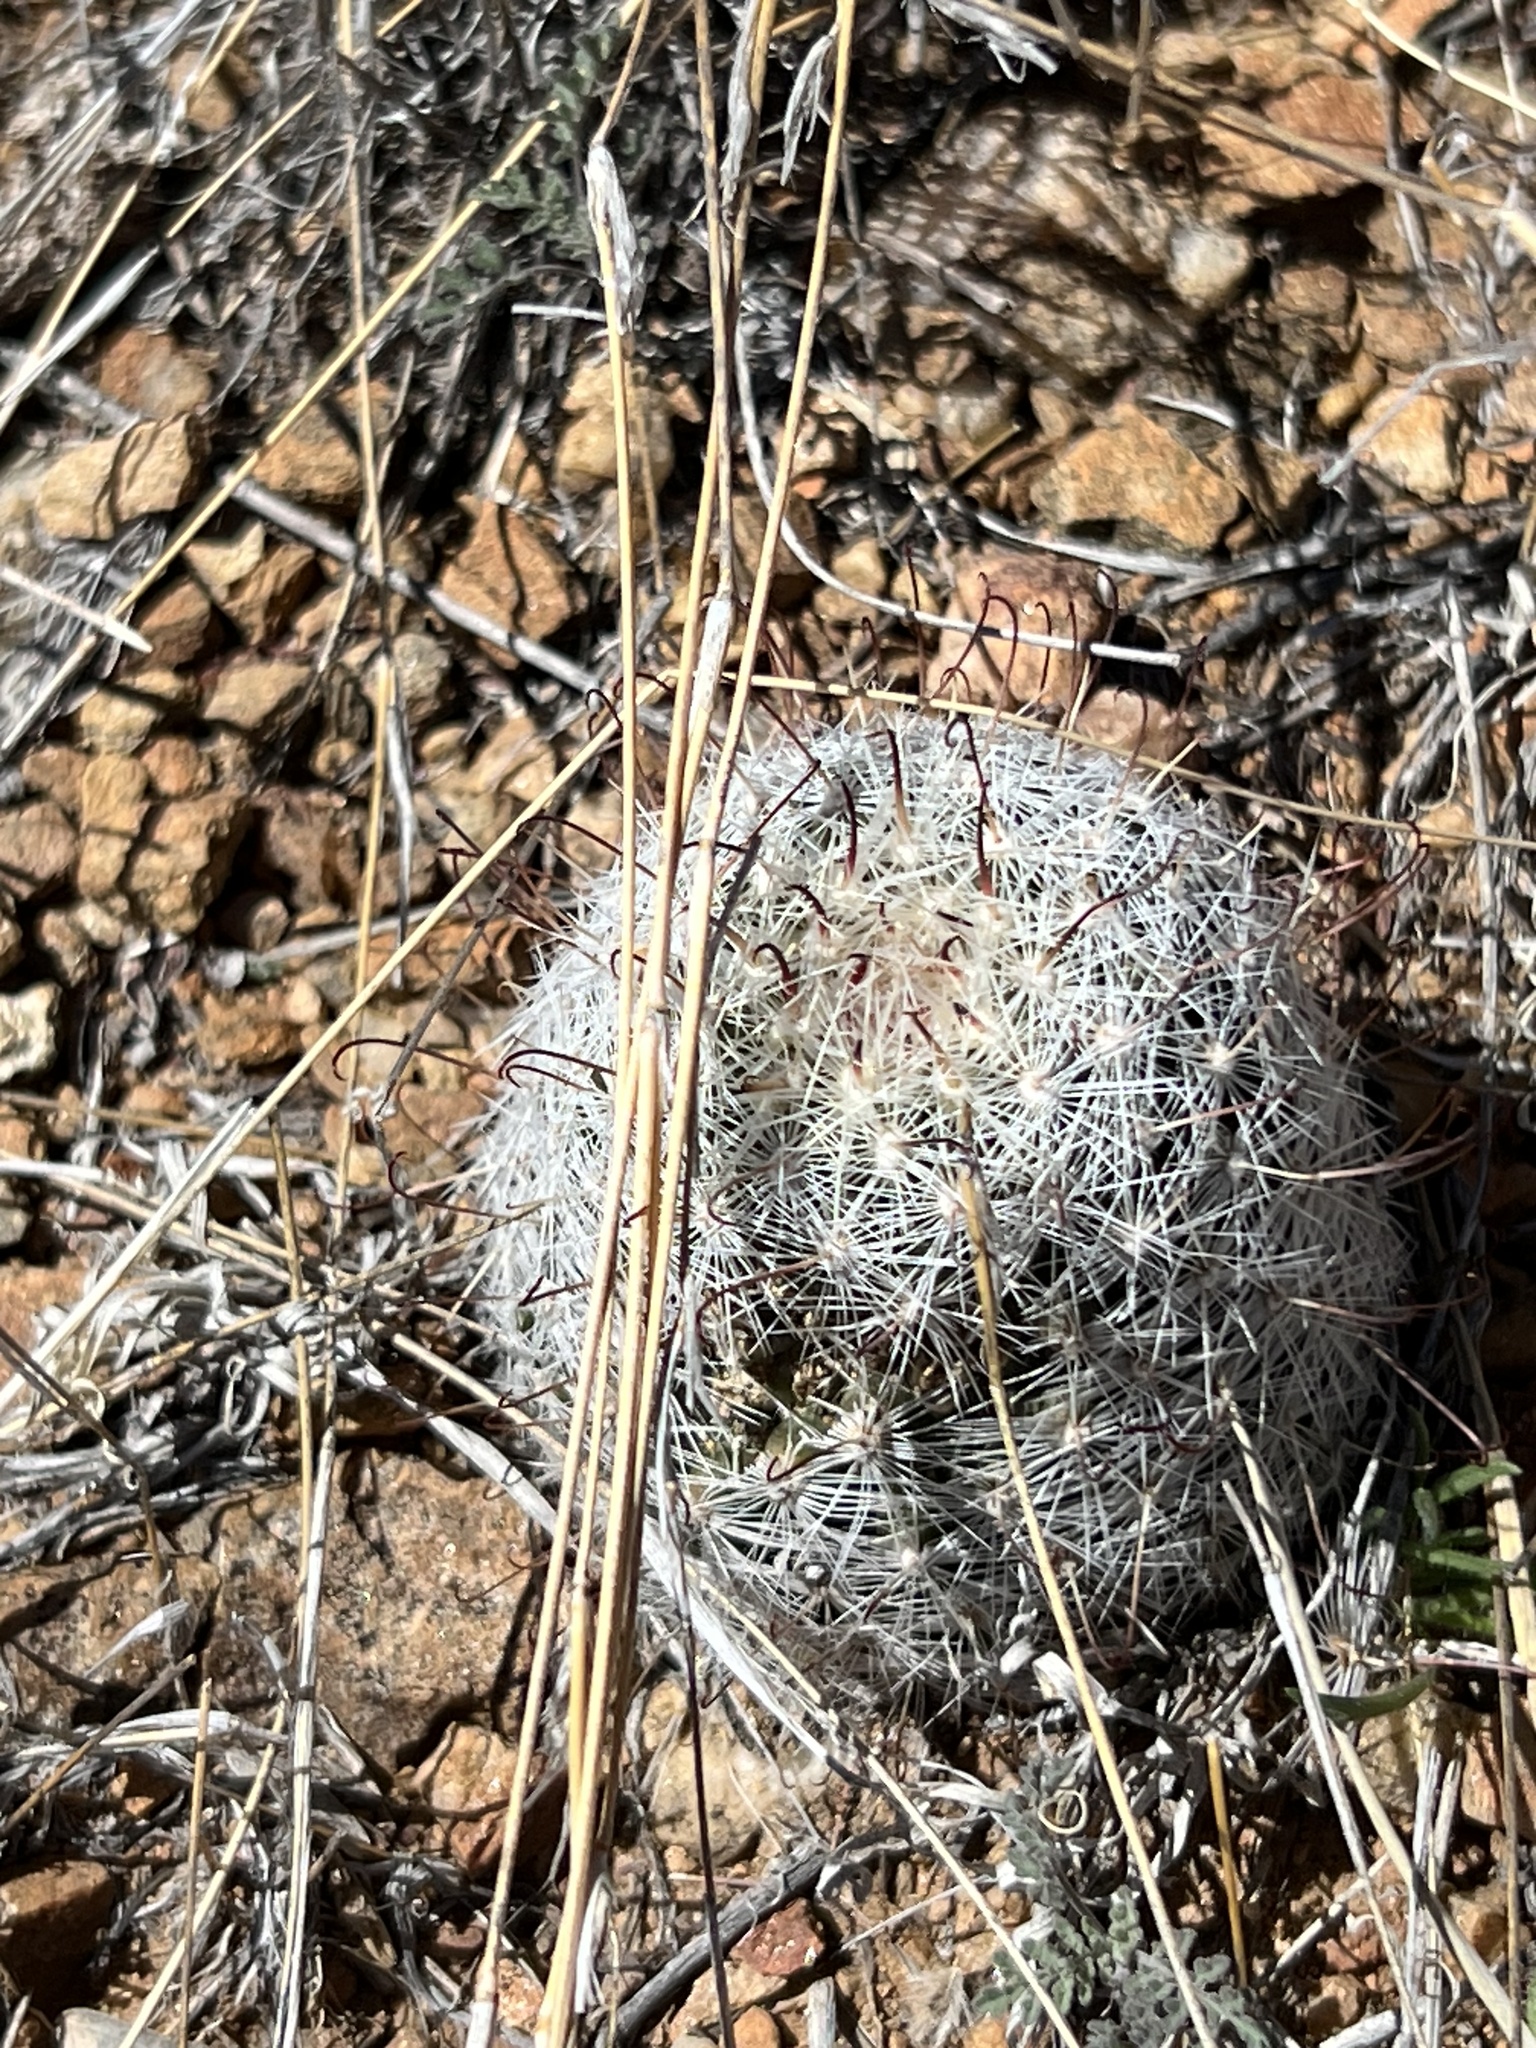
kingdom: Plantae
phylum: Tracheophyta
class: Magnoliopsida
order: Caryophyllales
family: Cactaceae
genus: Cochemiea
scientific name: Cochemiea grahamii
